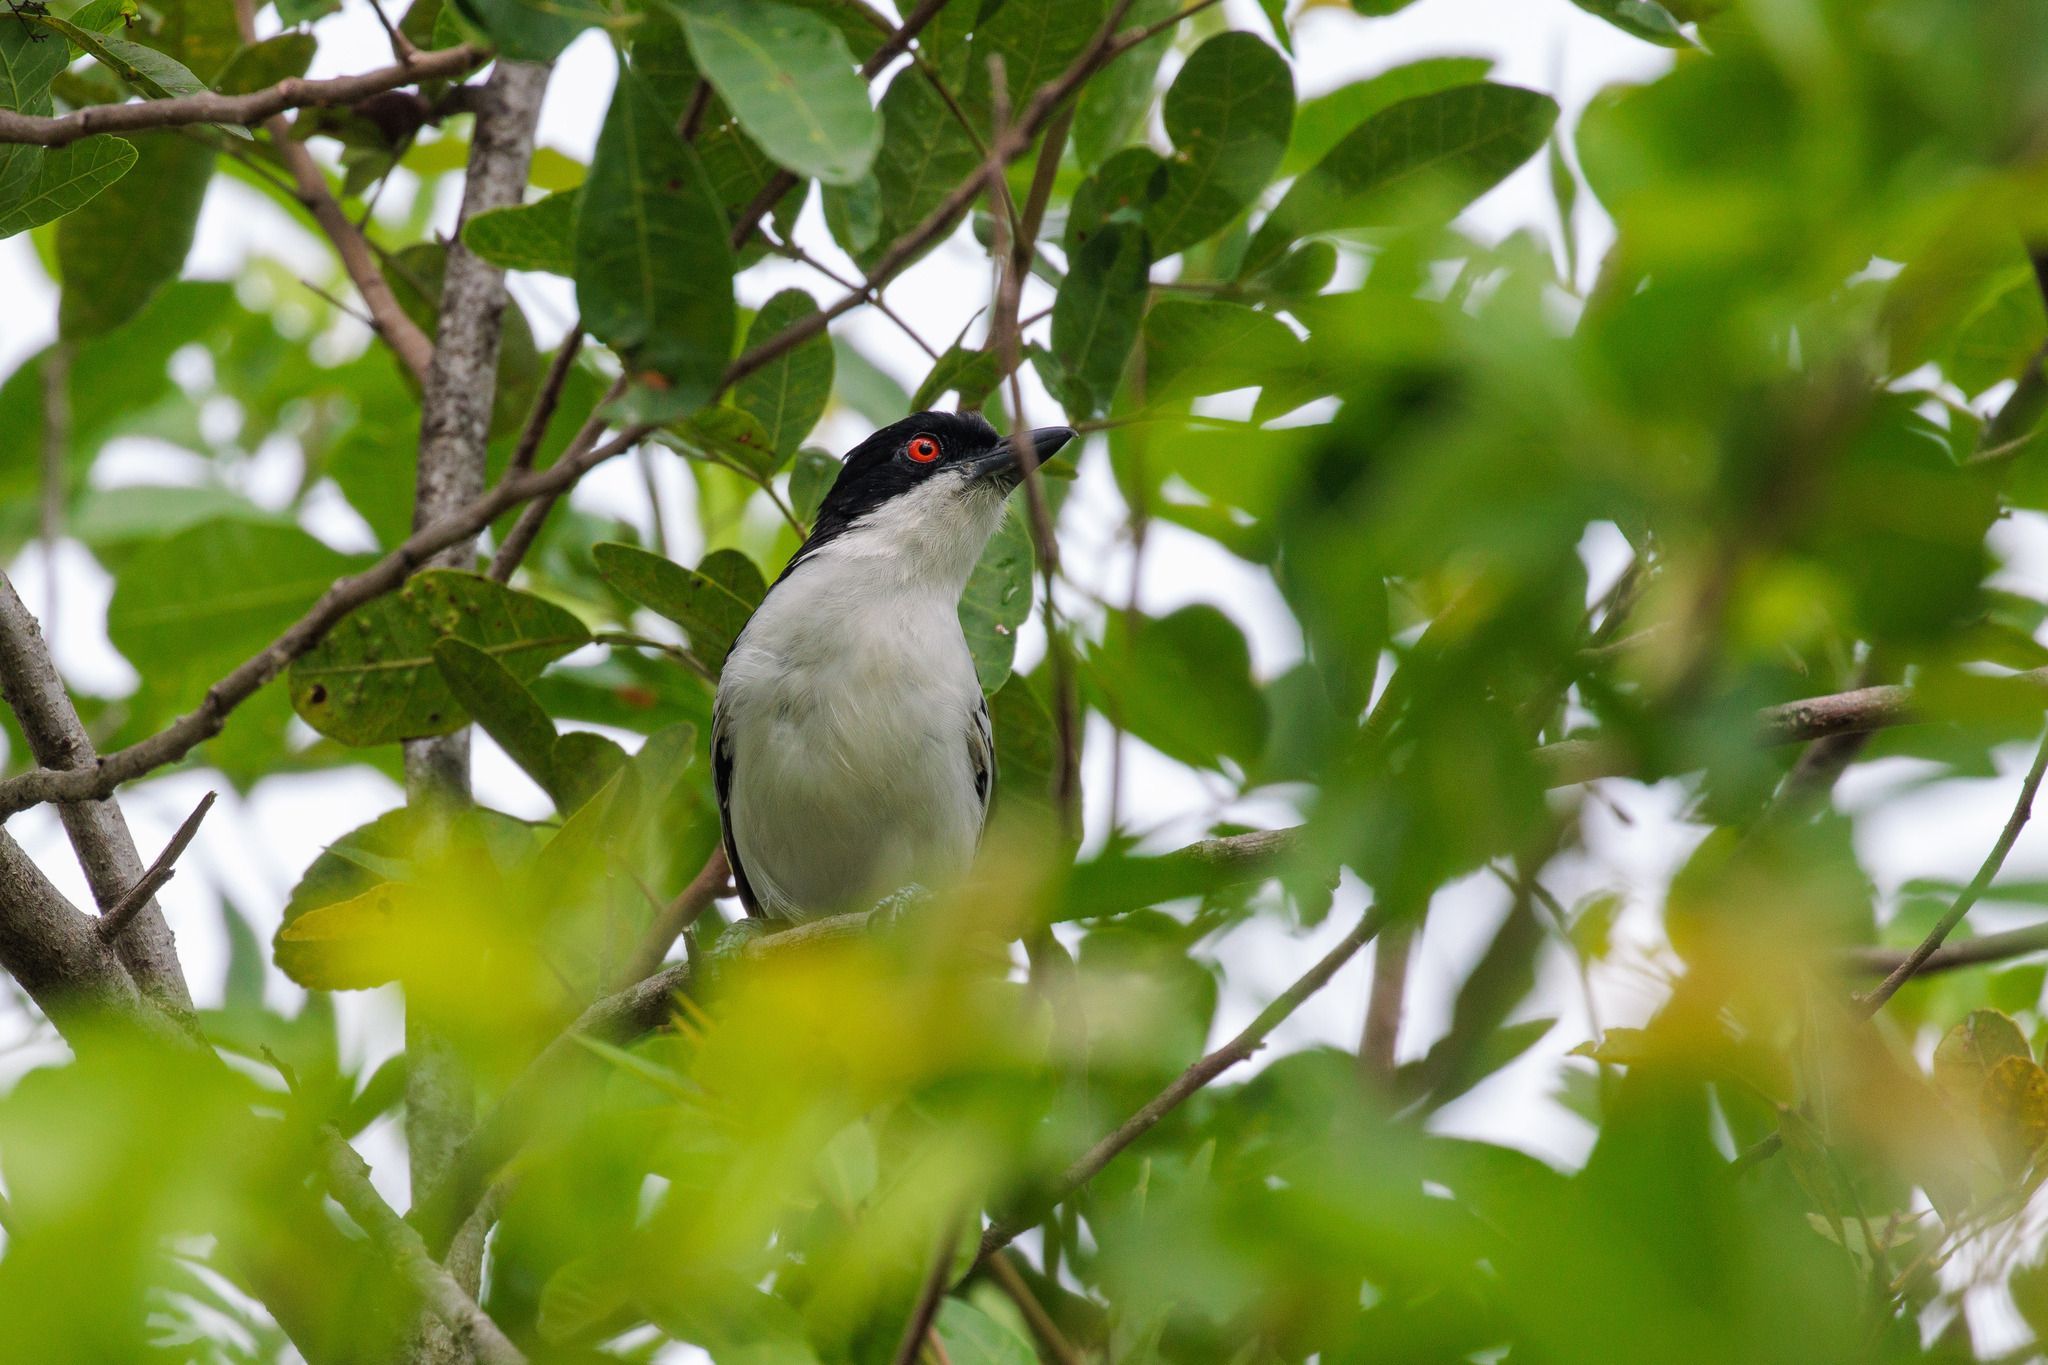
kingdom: Animalia
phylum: Chordata
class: Aves
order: Passeriformes
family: Thamnophilidae
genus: Taraba
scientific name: Taraba major
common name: Great antshrike
